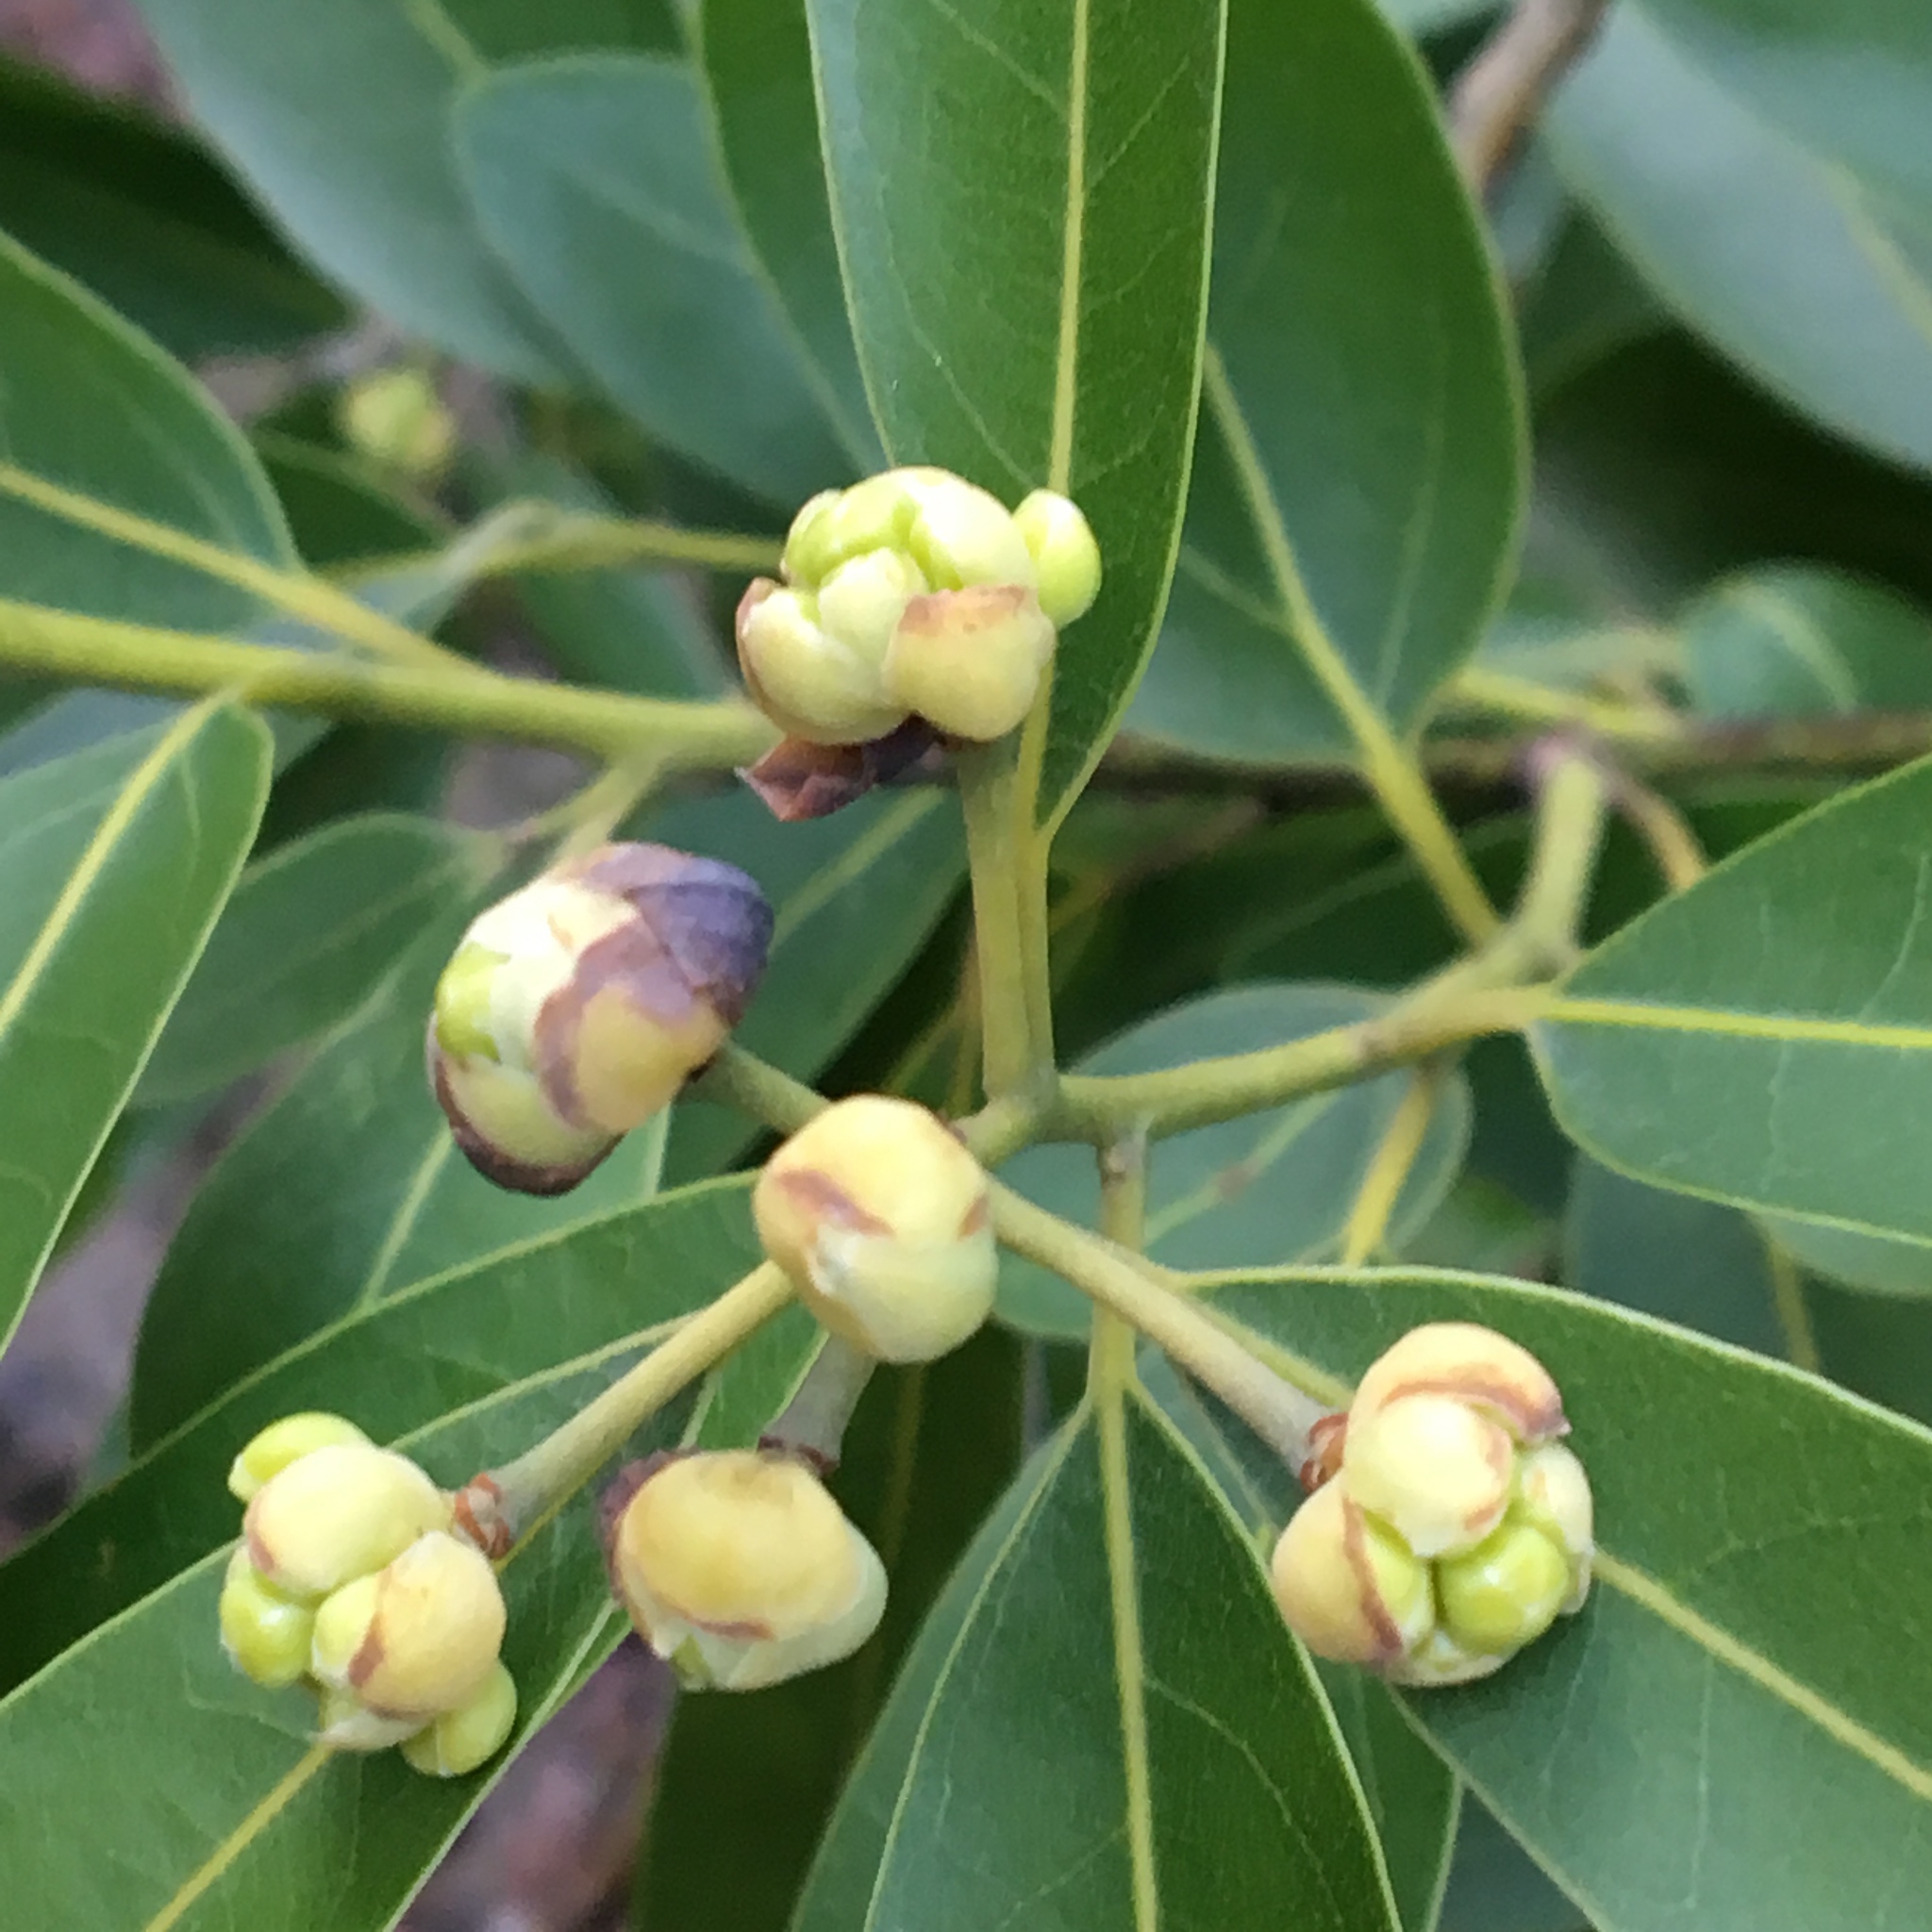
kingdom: Plantae
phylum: Tracheophyta
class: Magnoliopsida
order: Laurales
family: Lauraceae
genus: Umbellularia
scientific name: Umbellularia californica
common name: California bay
